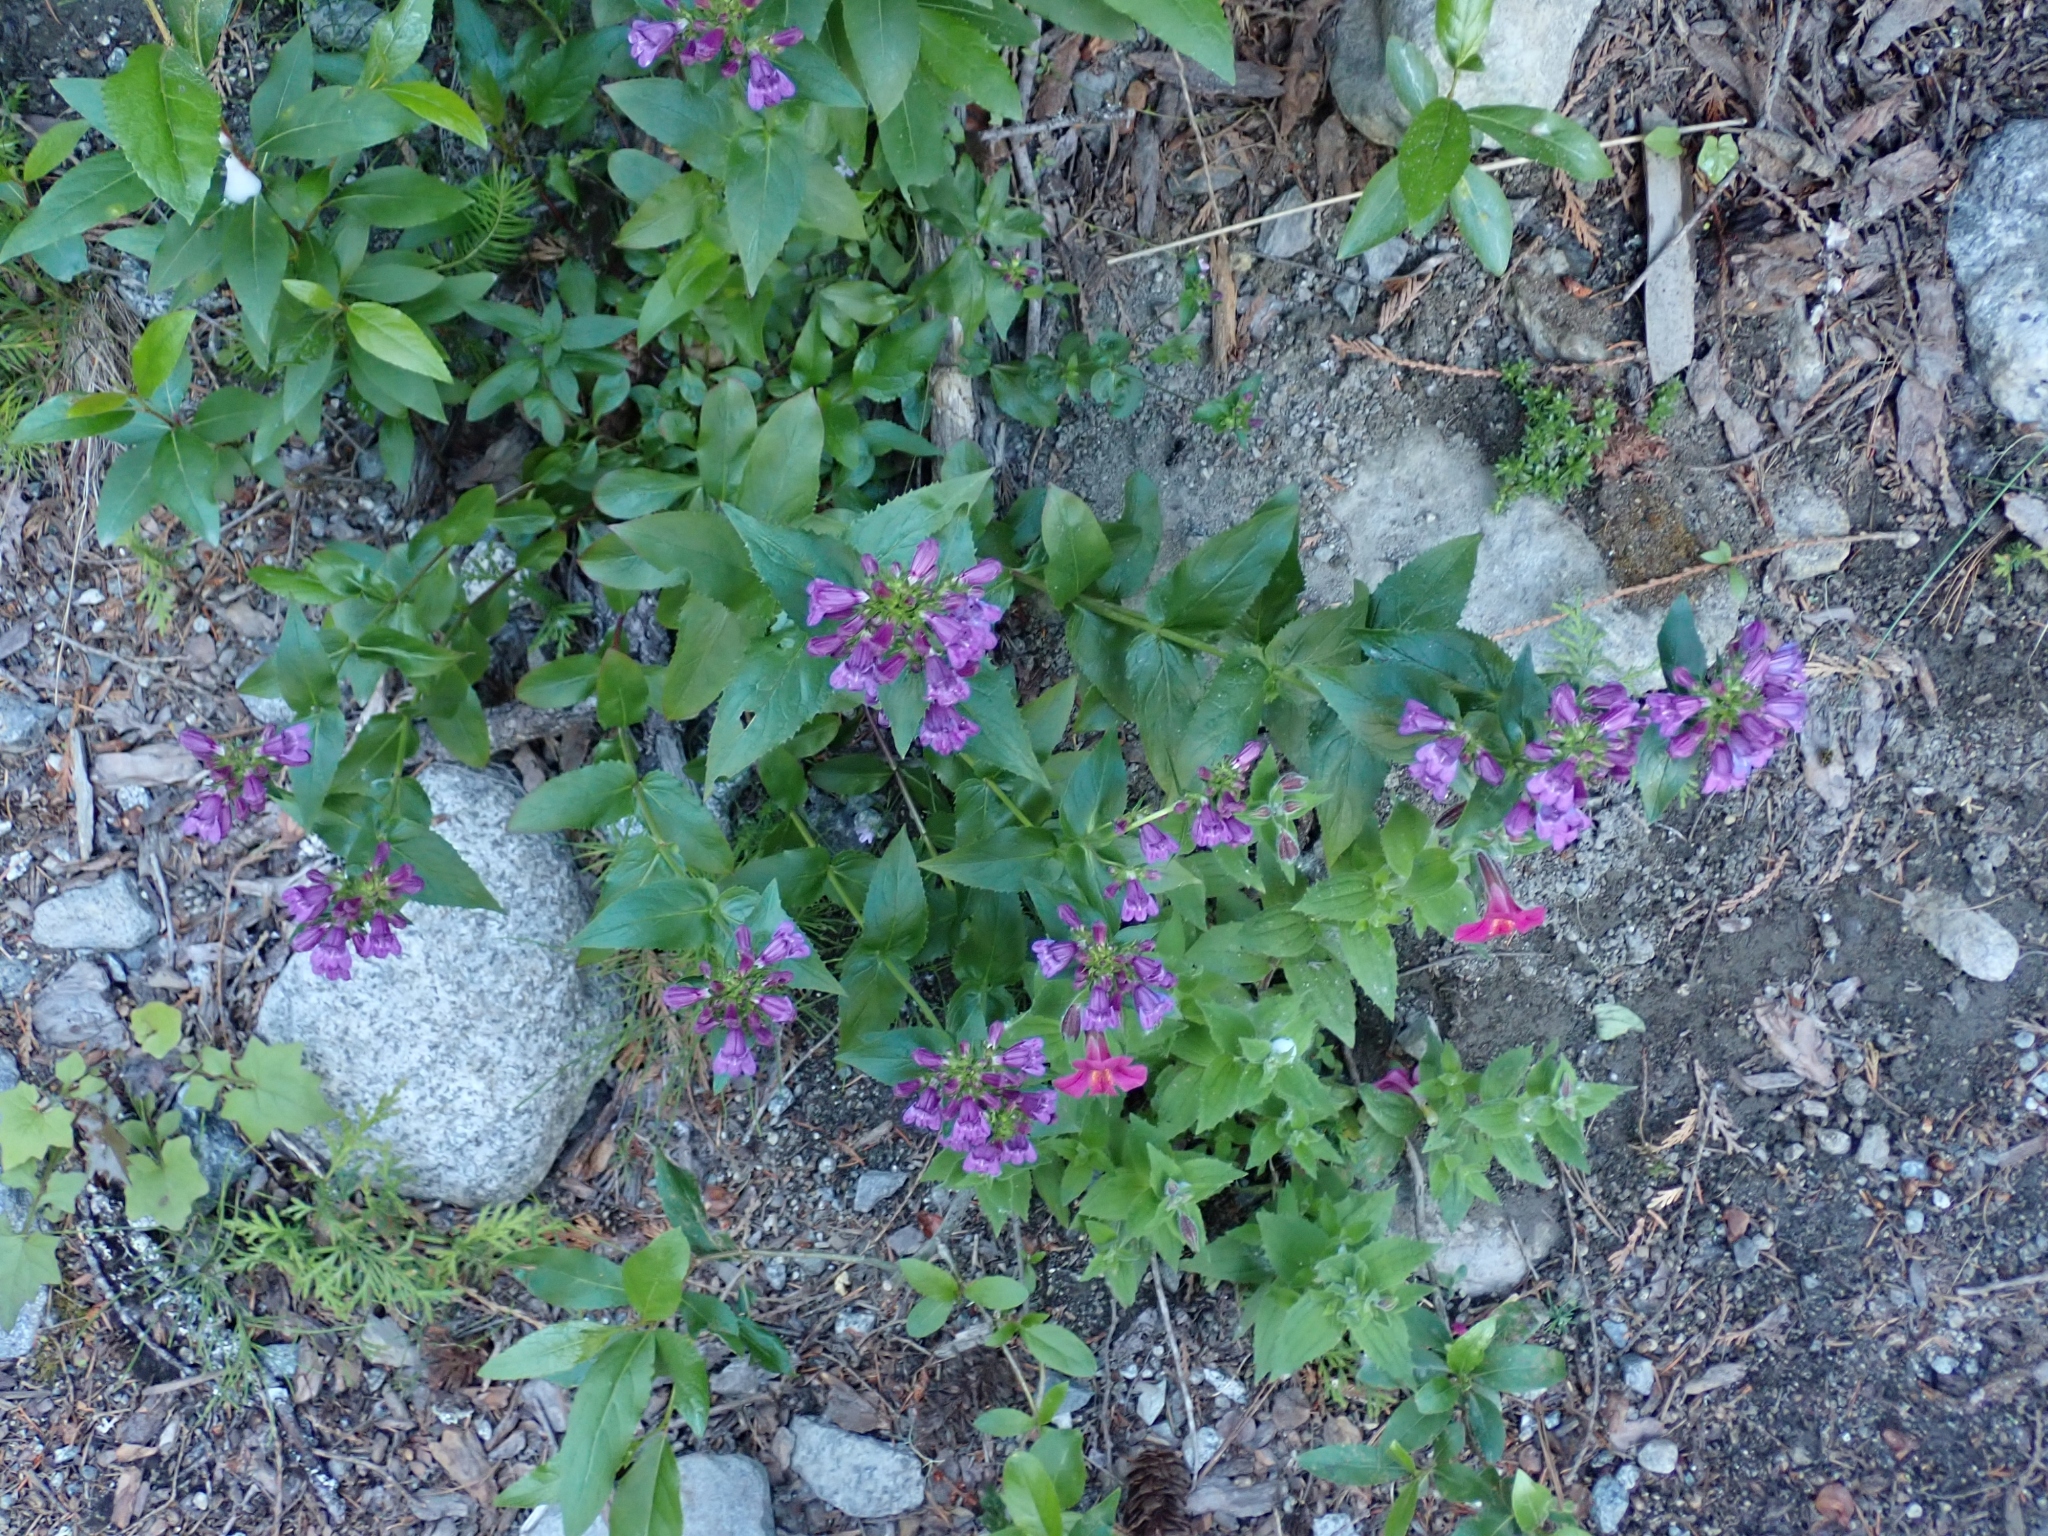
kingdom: Plantae
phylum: Tracheophyta
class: Magnoliopsida
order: Lamiales
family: Plantaginaceae
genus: Penstemon
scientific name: Penstemon serrulatus
